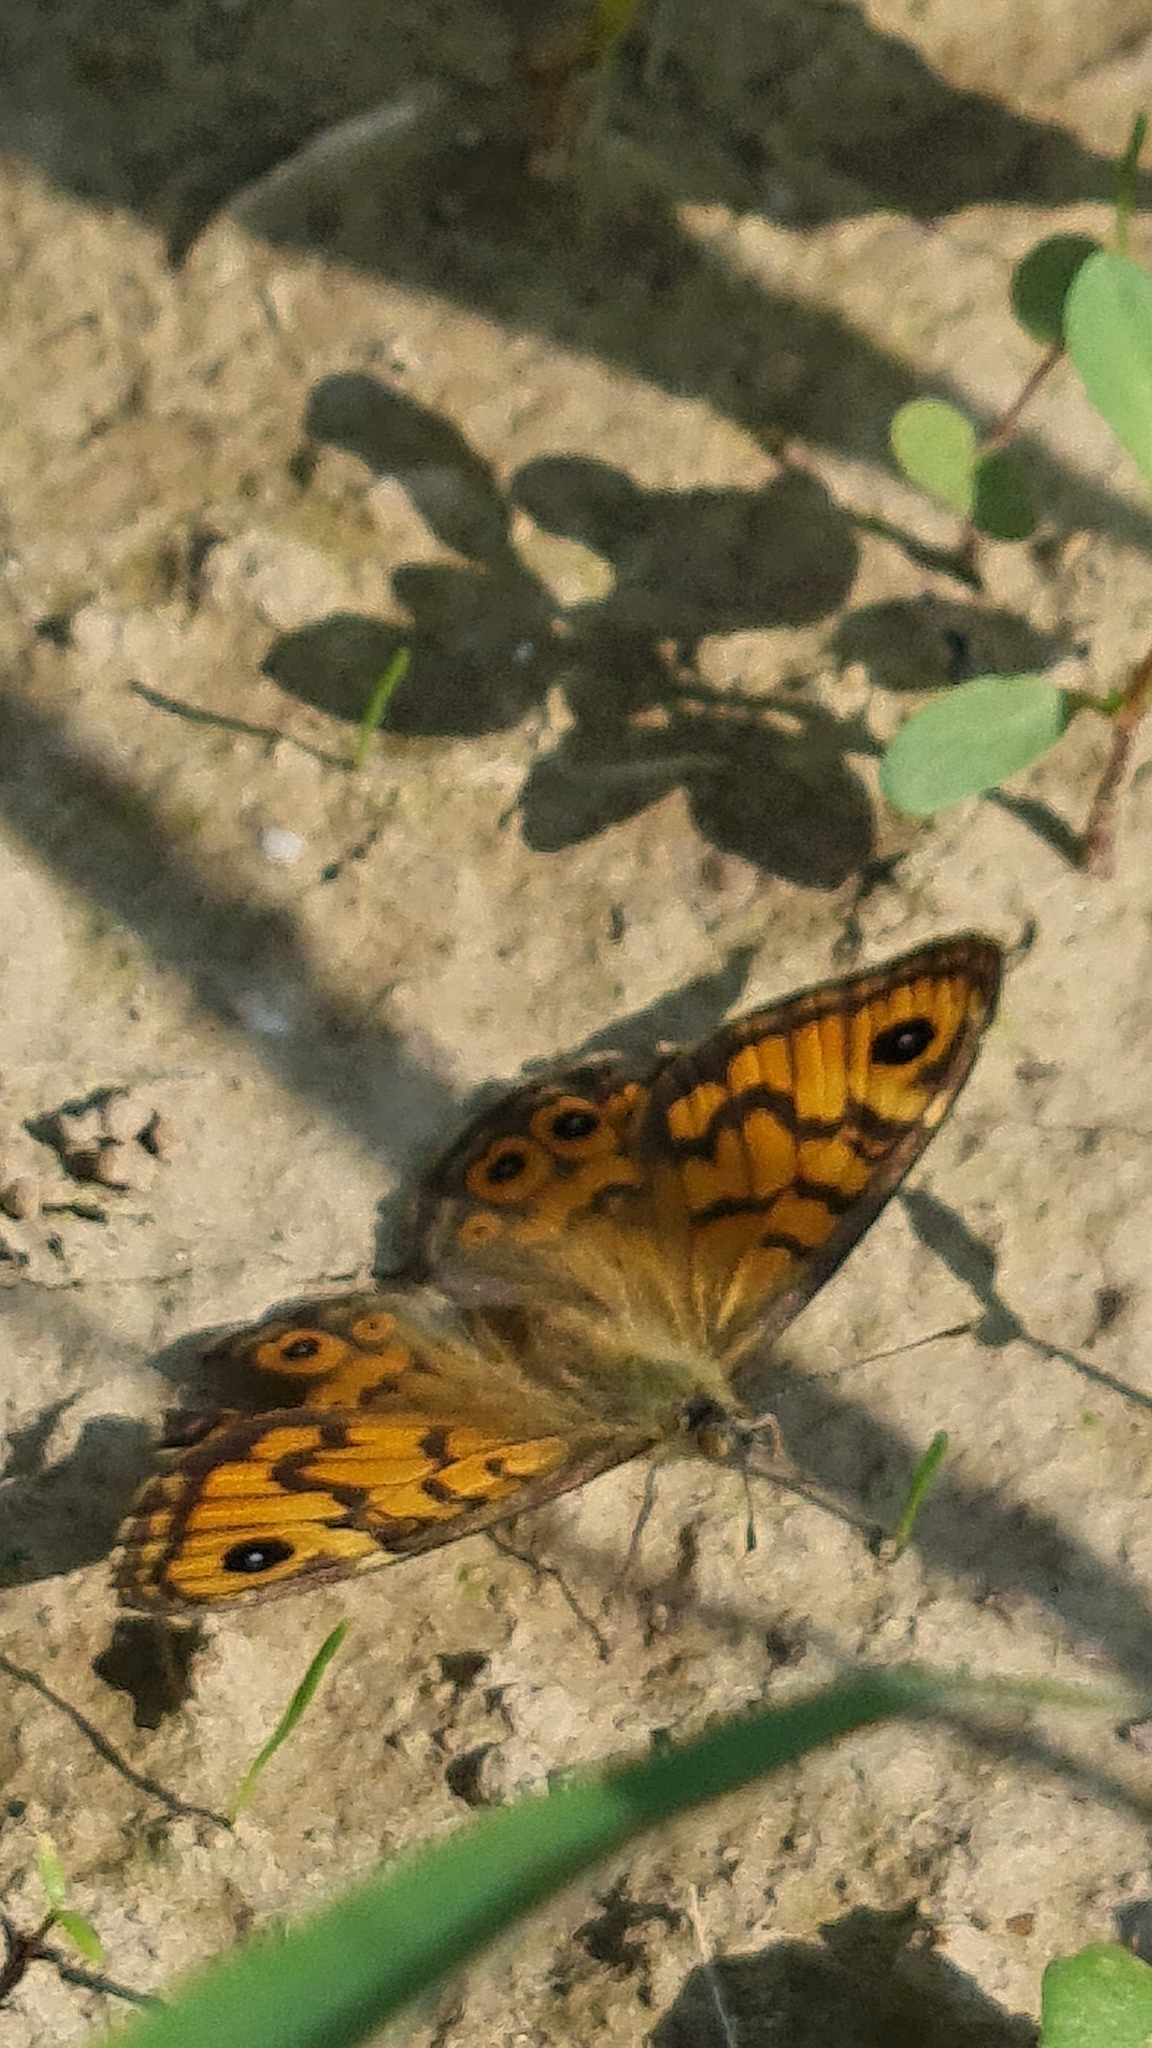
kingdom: Animalia
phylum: Arthropoda
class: Insecta
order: Lepidoptera
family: Nymphalidae
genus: Pararge
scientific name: Pararge Lasiommata megera
